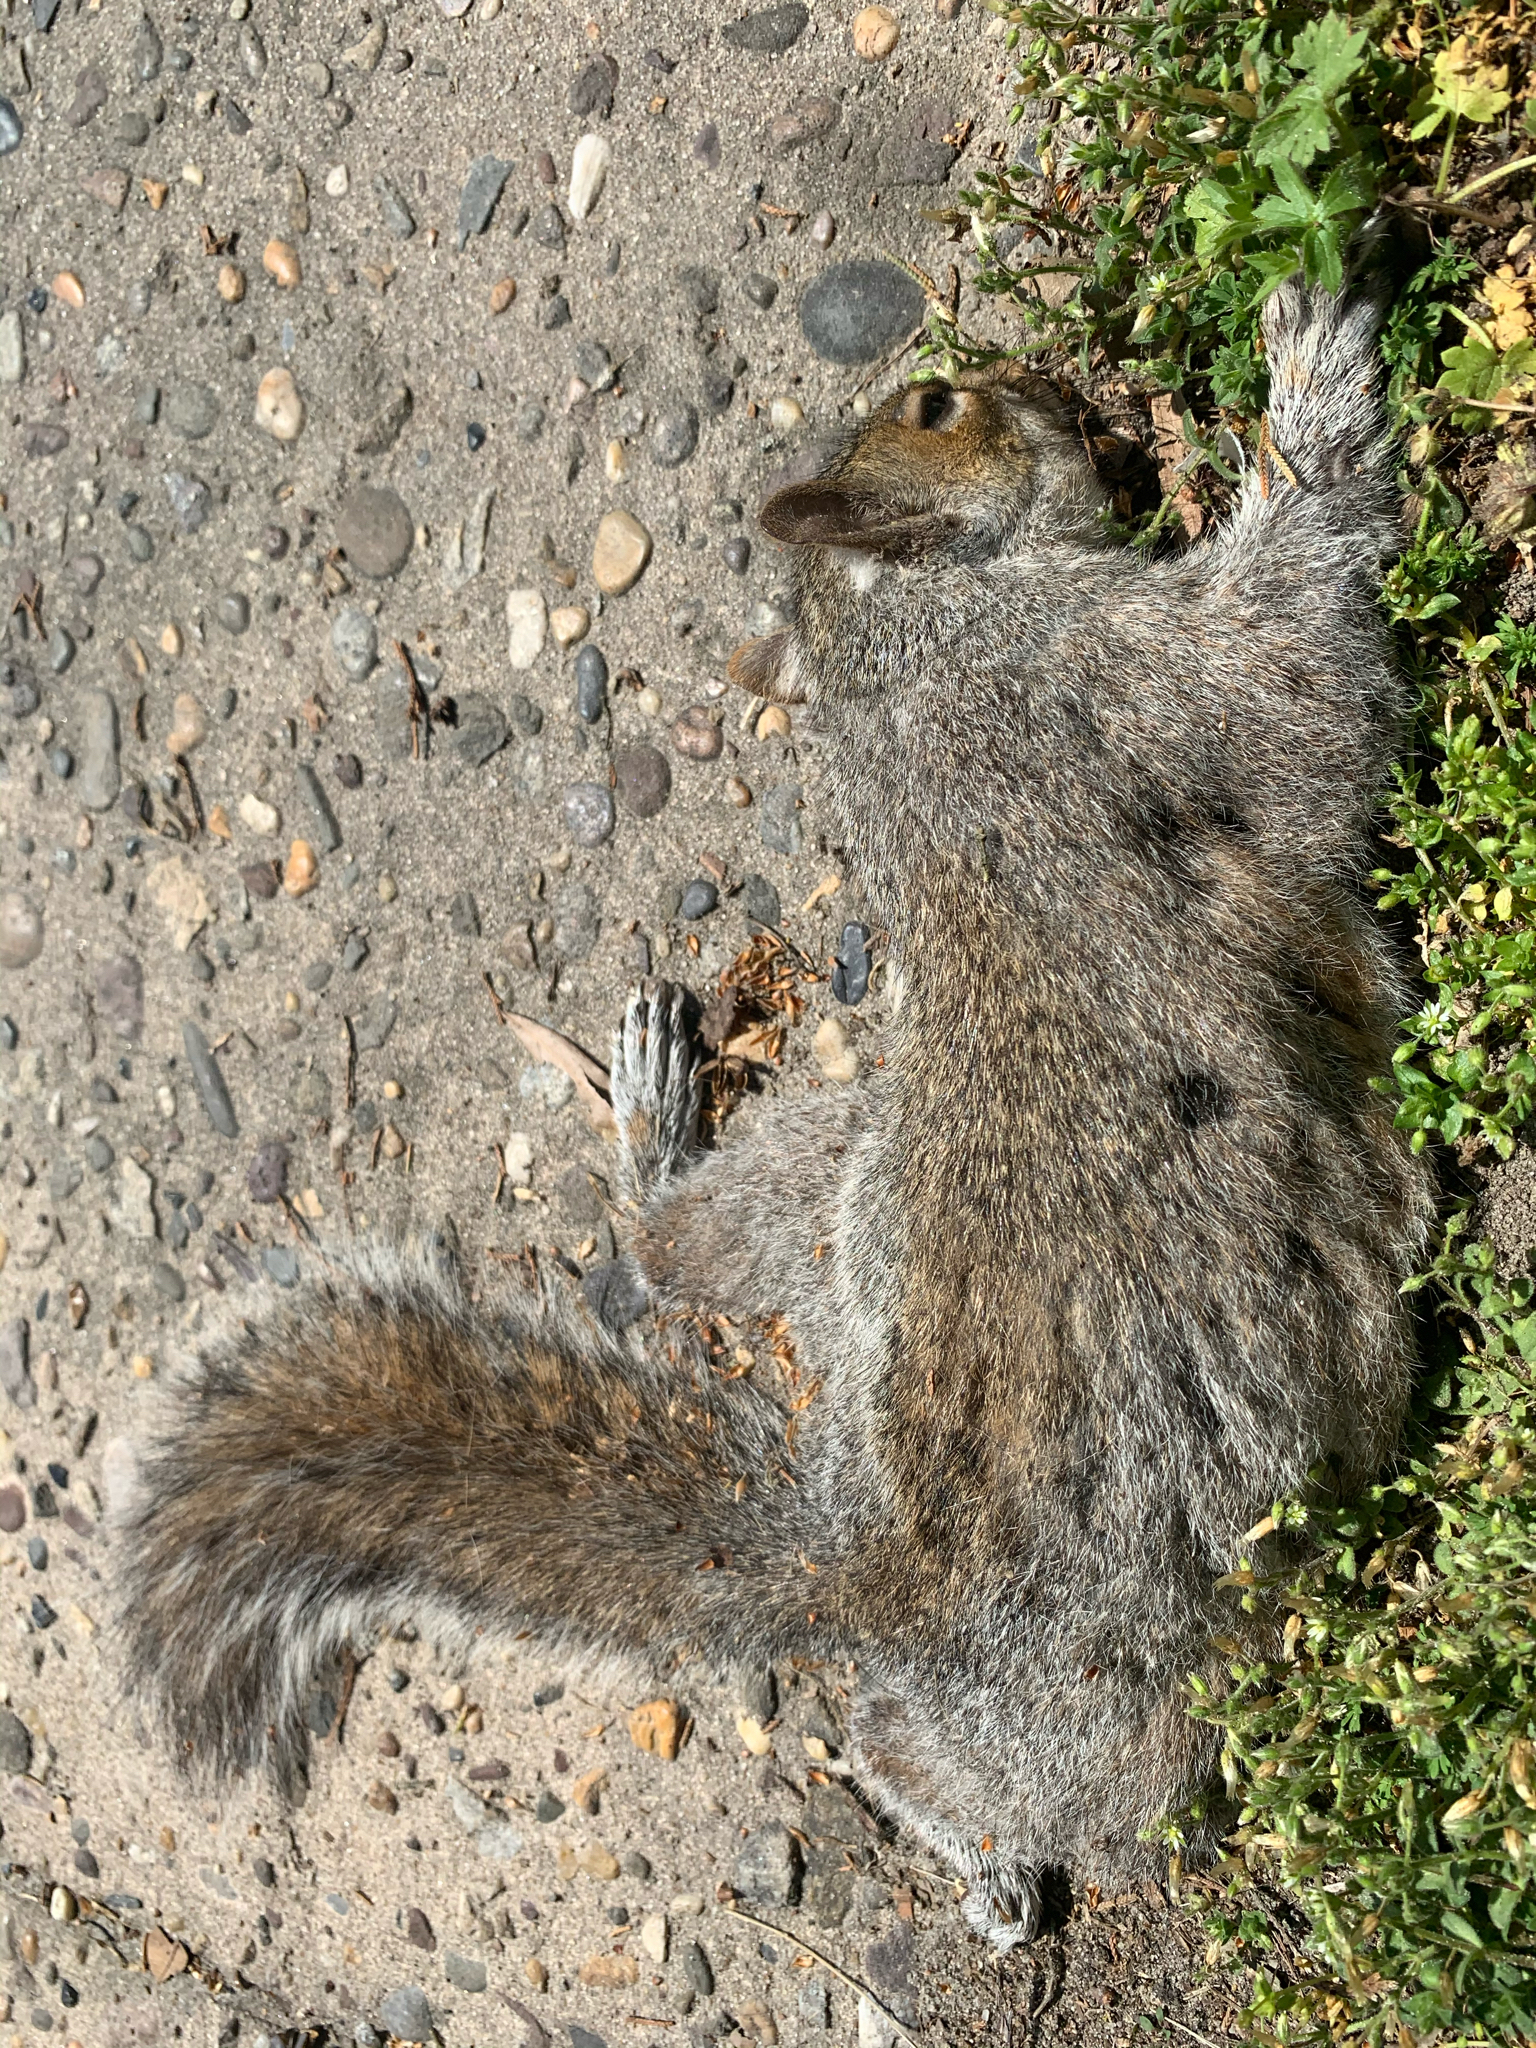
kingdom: Animalia
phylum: Chordata
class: Mammalia
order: Rodentia
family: Sciuridae
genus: Sciurus
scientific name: Sciurus carolinensis
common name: Eastern gray squirrel
